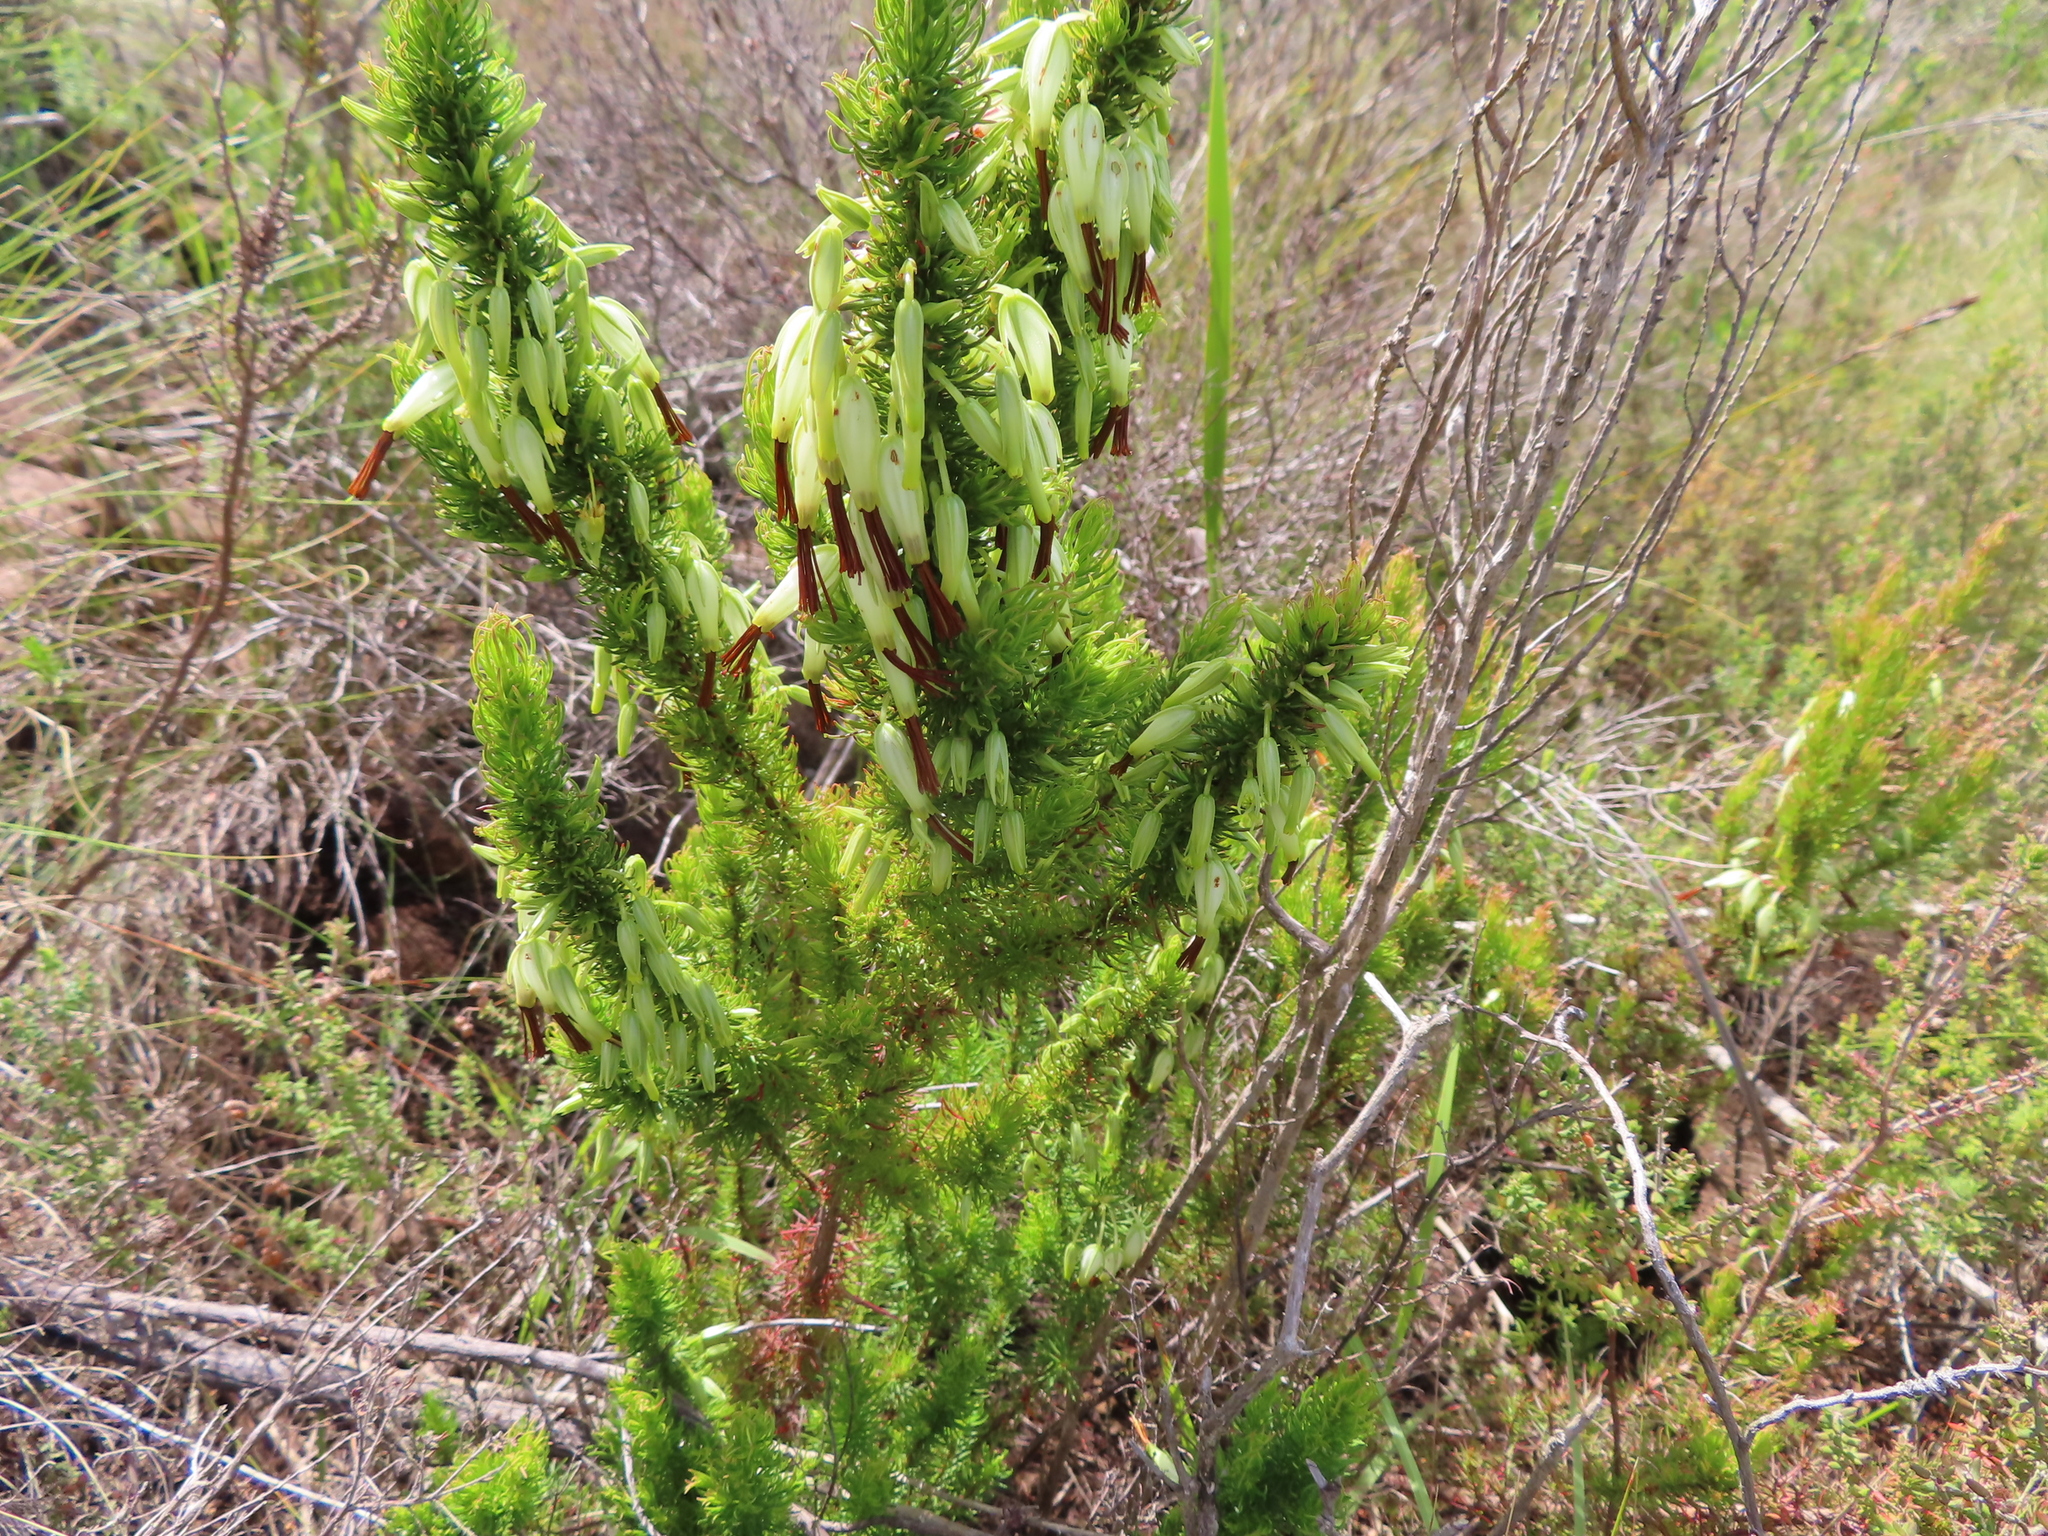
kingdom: Plantae
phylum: Tracheophyta
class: Magnoliopsida
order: Ericales
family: Ericaceae
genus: Erica
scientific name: Erica plukenetii
